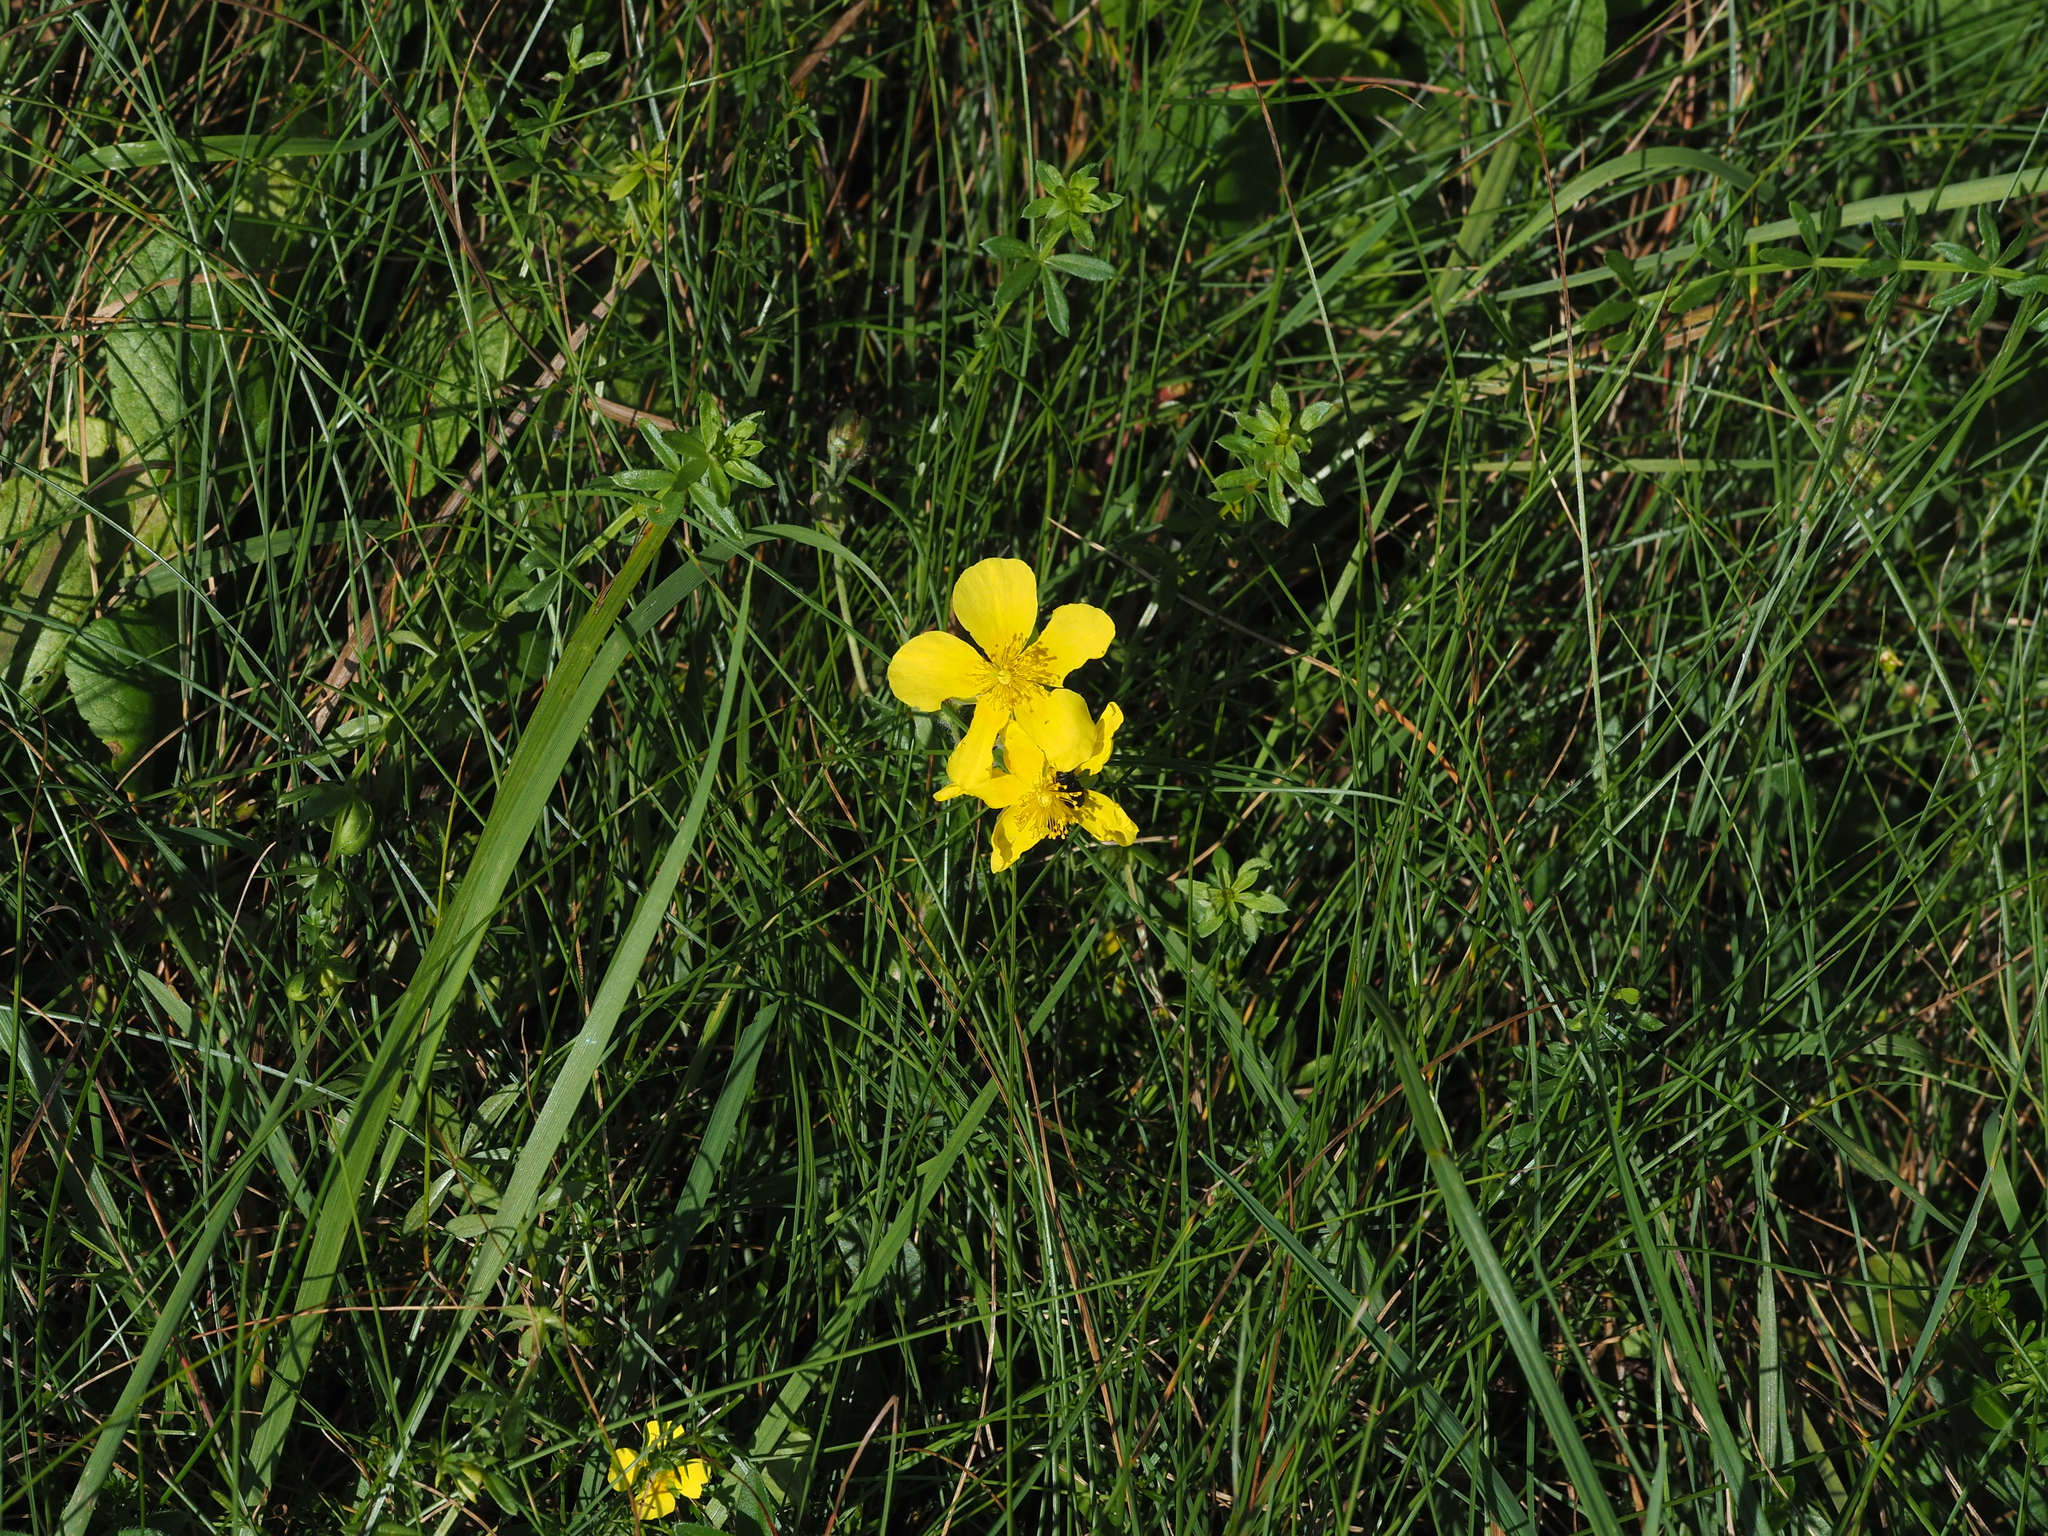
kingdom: Plantae
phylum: Tracheophyta
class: Magnoliopsida
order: Malvales
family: Cistaceae
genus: Helianthemum
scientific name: Helianthemum nummularium
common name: Common rock-rose
